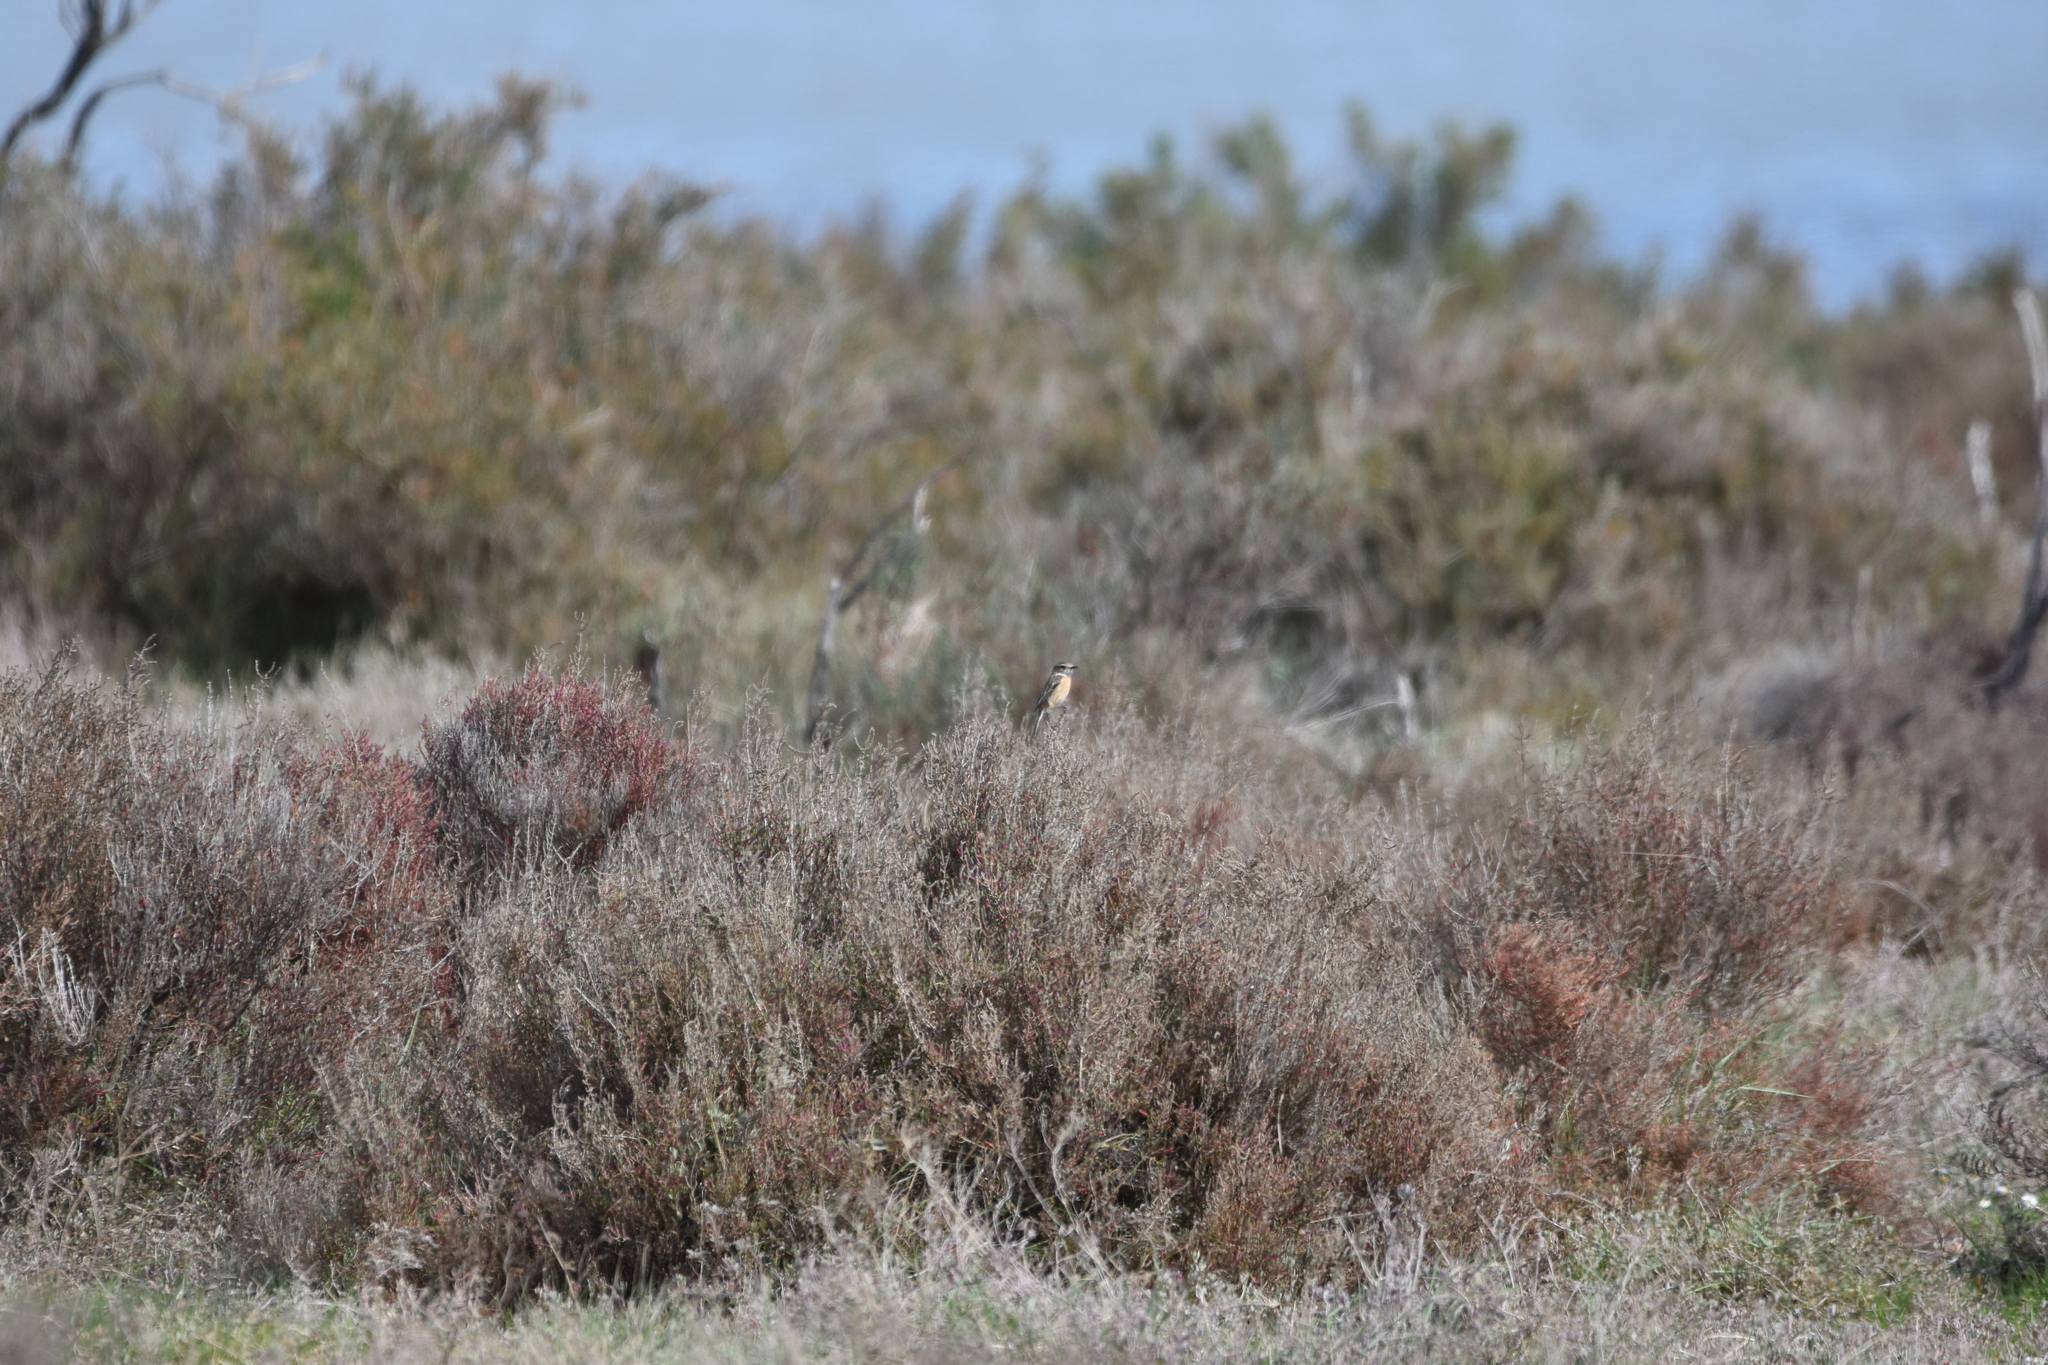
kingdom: Animalia
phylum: Chordata
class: Aves
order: Passeriformes
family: Muscicapidae
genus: Saxicola
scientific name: Saxicola rubicola
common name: European stonechat
